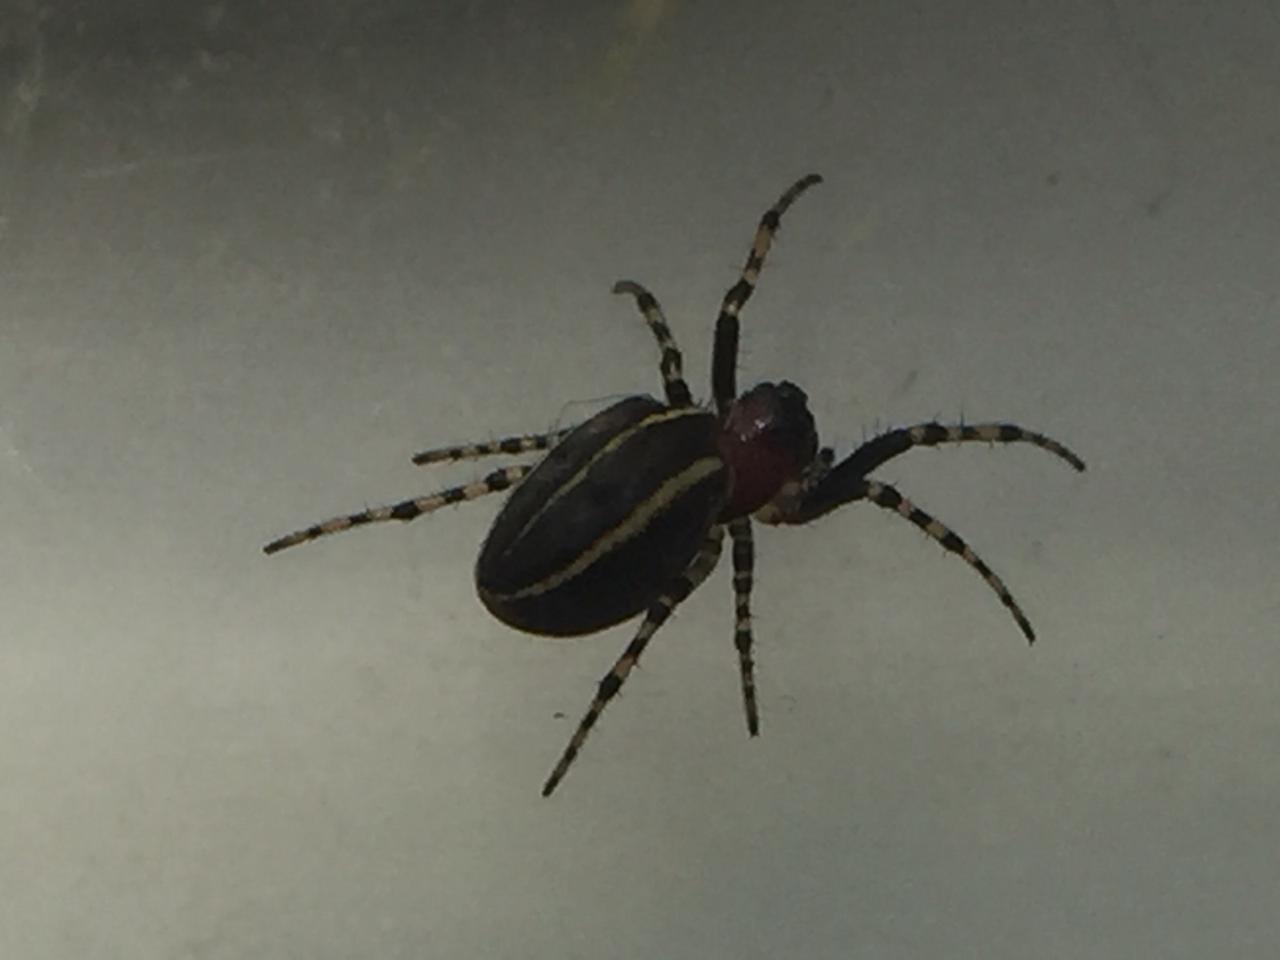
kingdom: Animalia
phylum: Arthropoda
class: Arachnida
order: Araneae
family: Araneidae
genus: Alpaida
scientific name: Alpaida leucogramma
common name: Orb weavers
